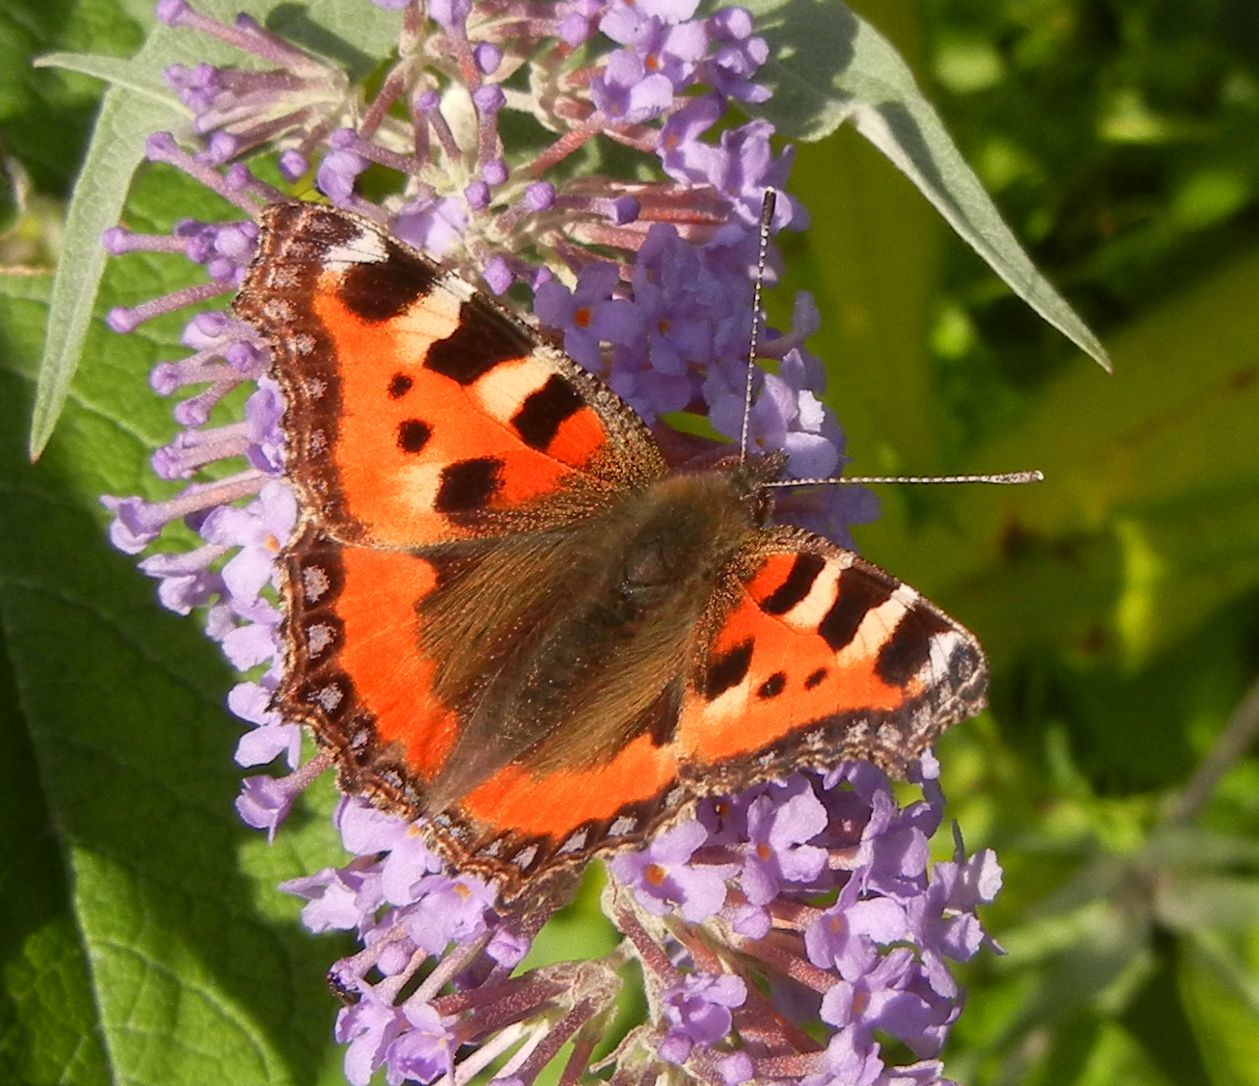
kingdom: Animalia
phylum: Arthropoda
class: Insecta
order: Lepidoptera
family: Nymphalidae
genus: Aglais
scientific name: Aglais urticae
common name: Small tortoiseshell
